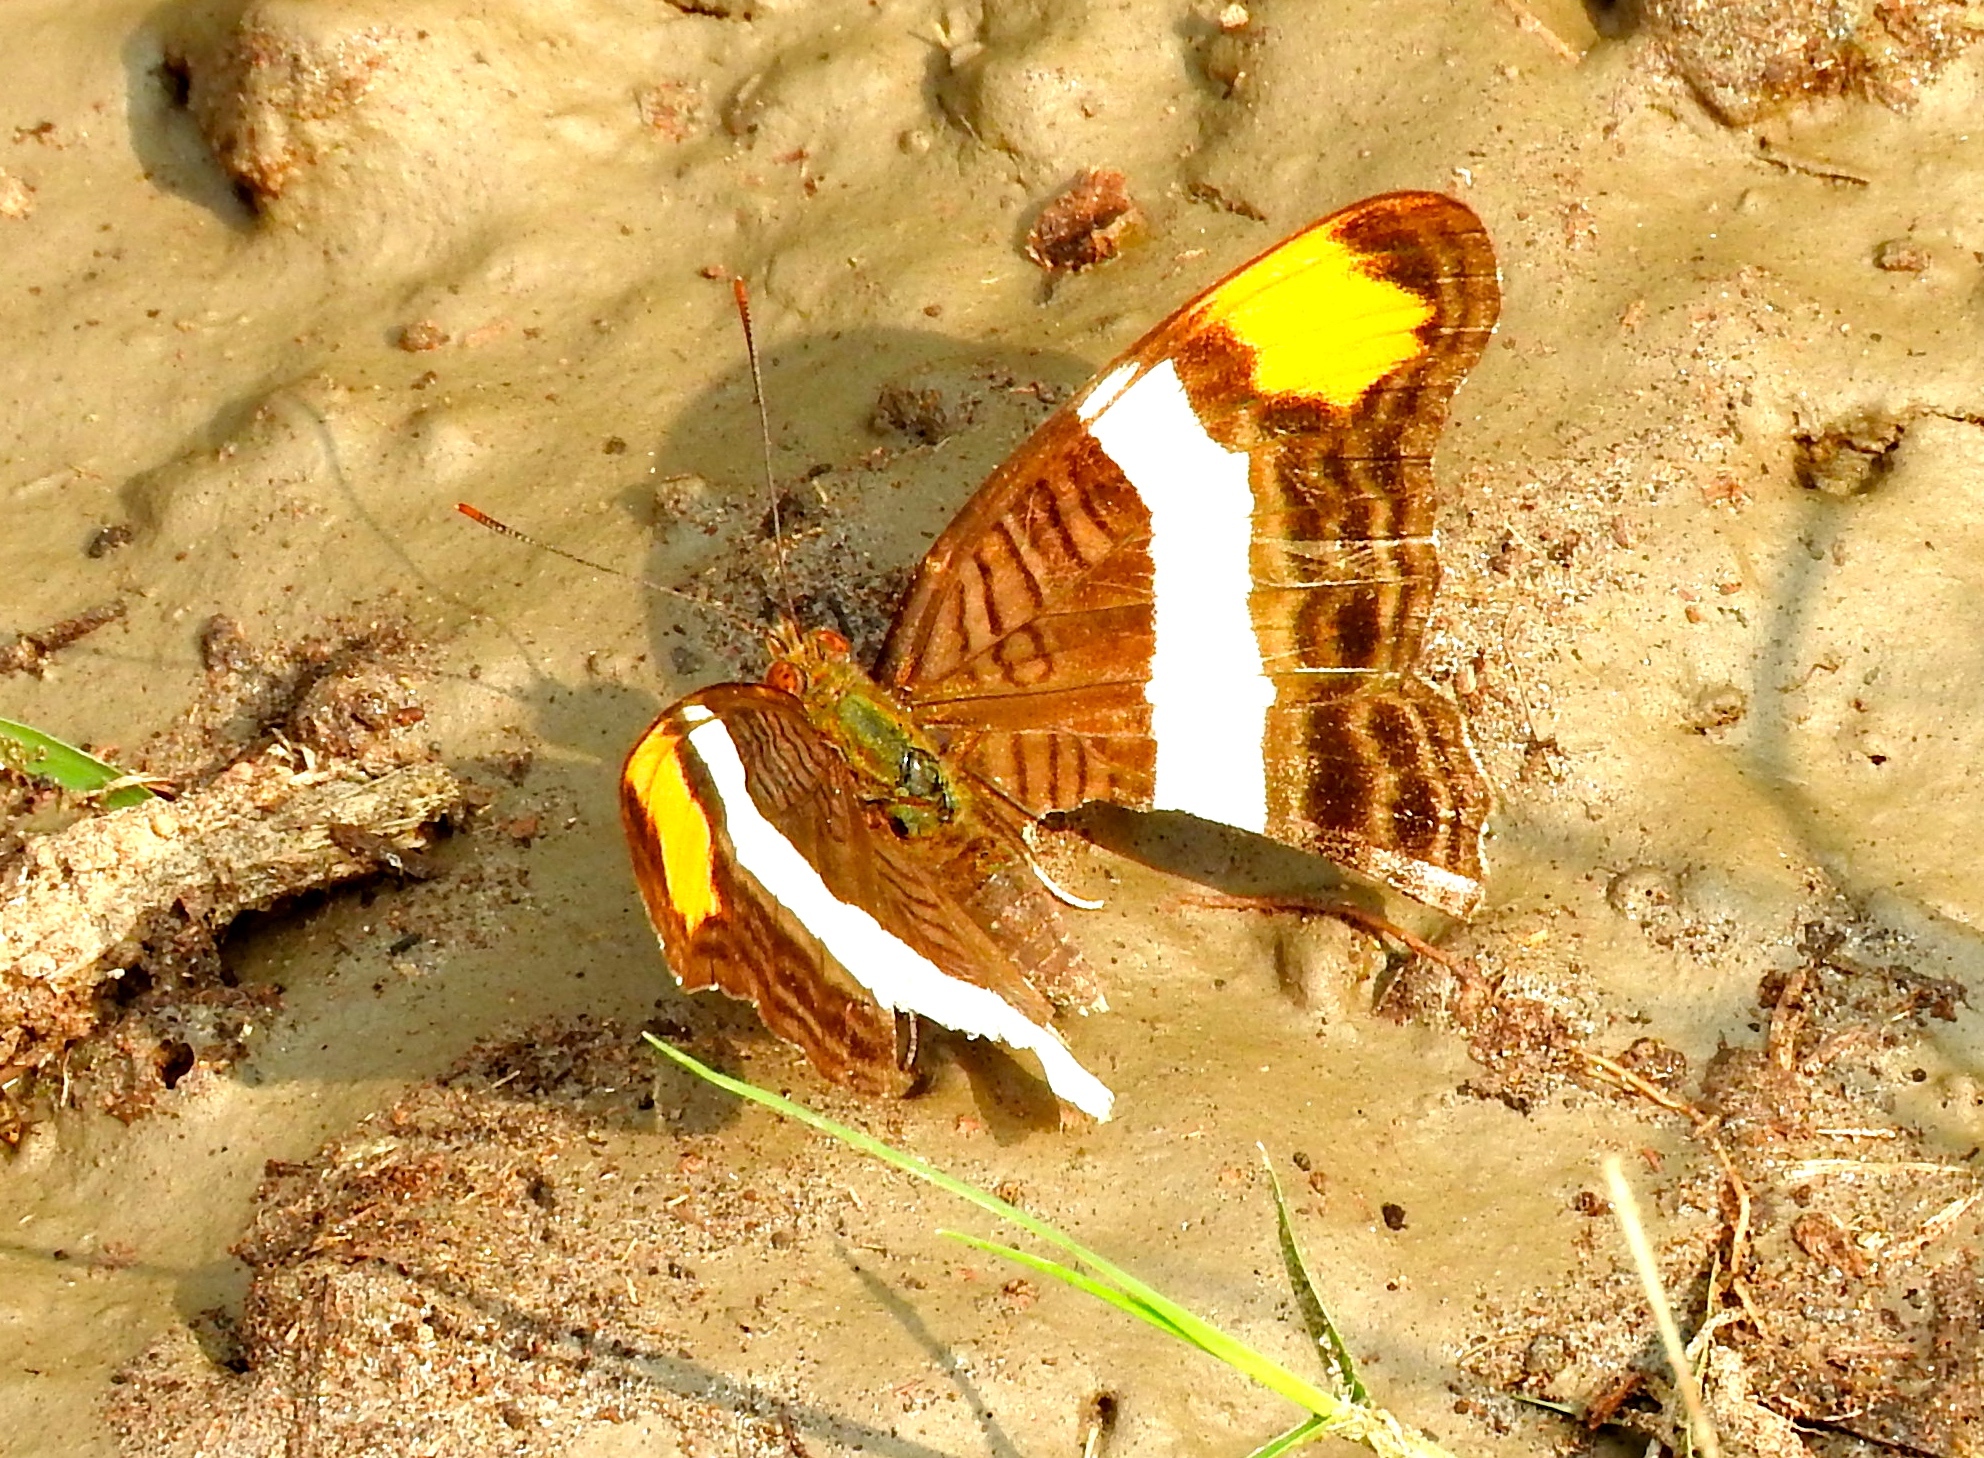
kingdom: Animalia
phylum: Arthropoda
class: Insecta
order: Lepidoptera
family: Nymphalidae
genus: Limenitis
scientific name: Limenitis fessonia
